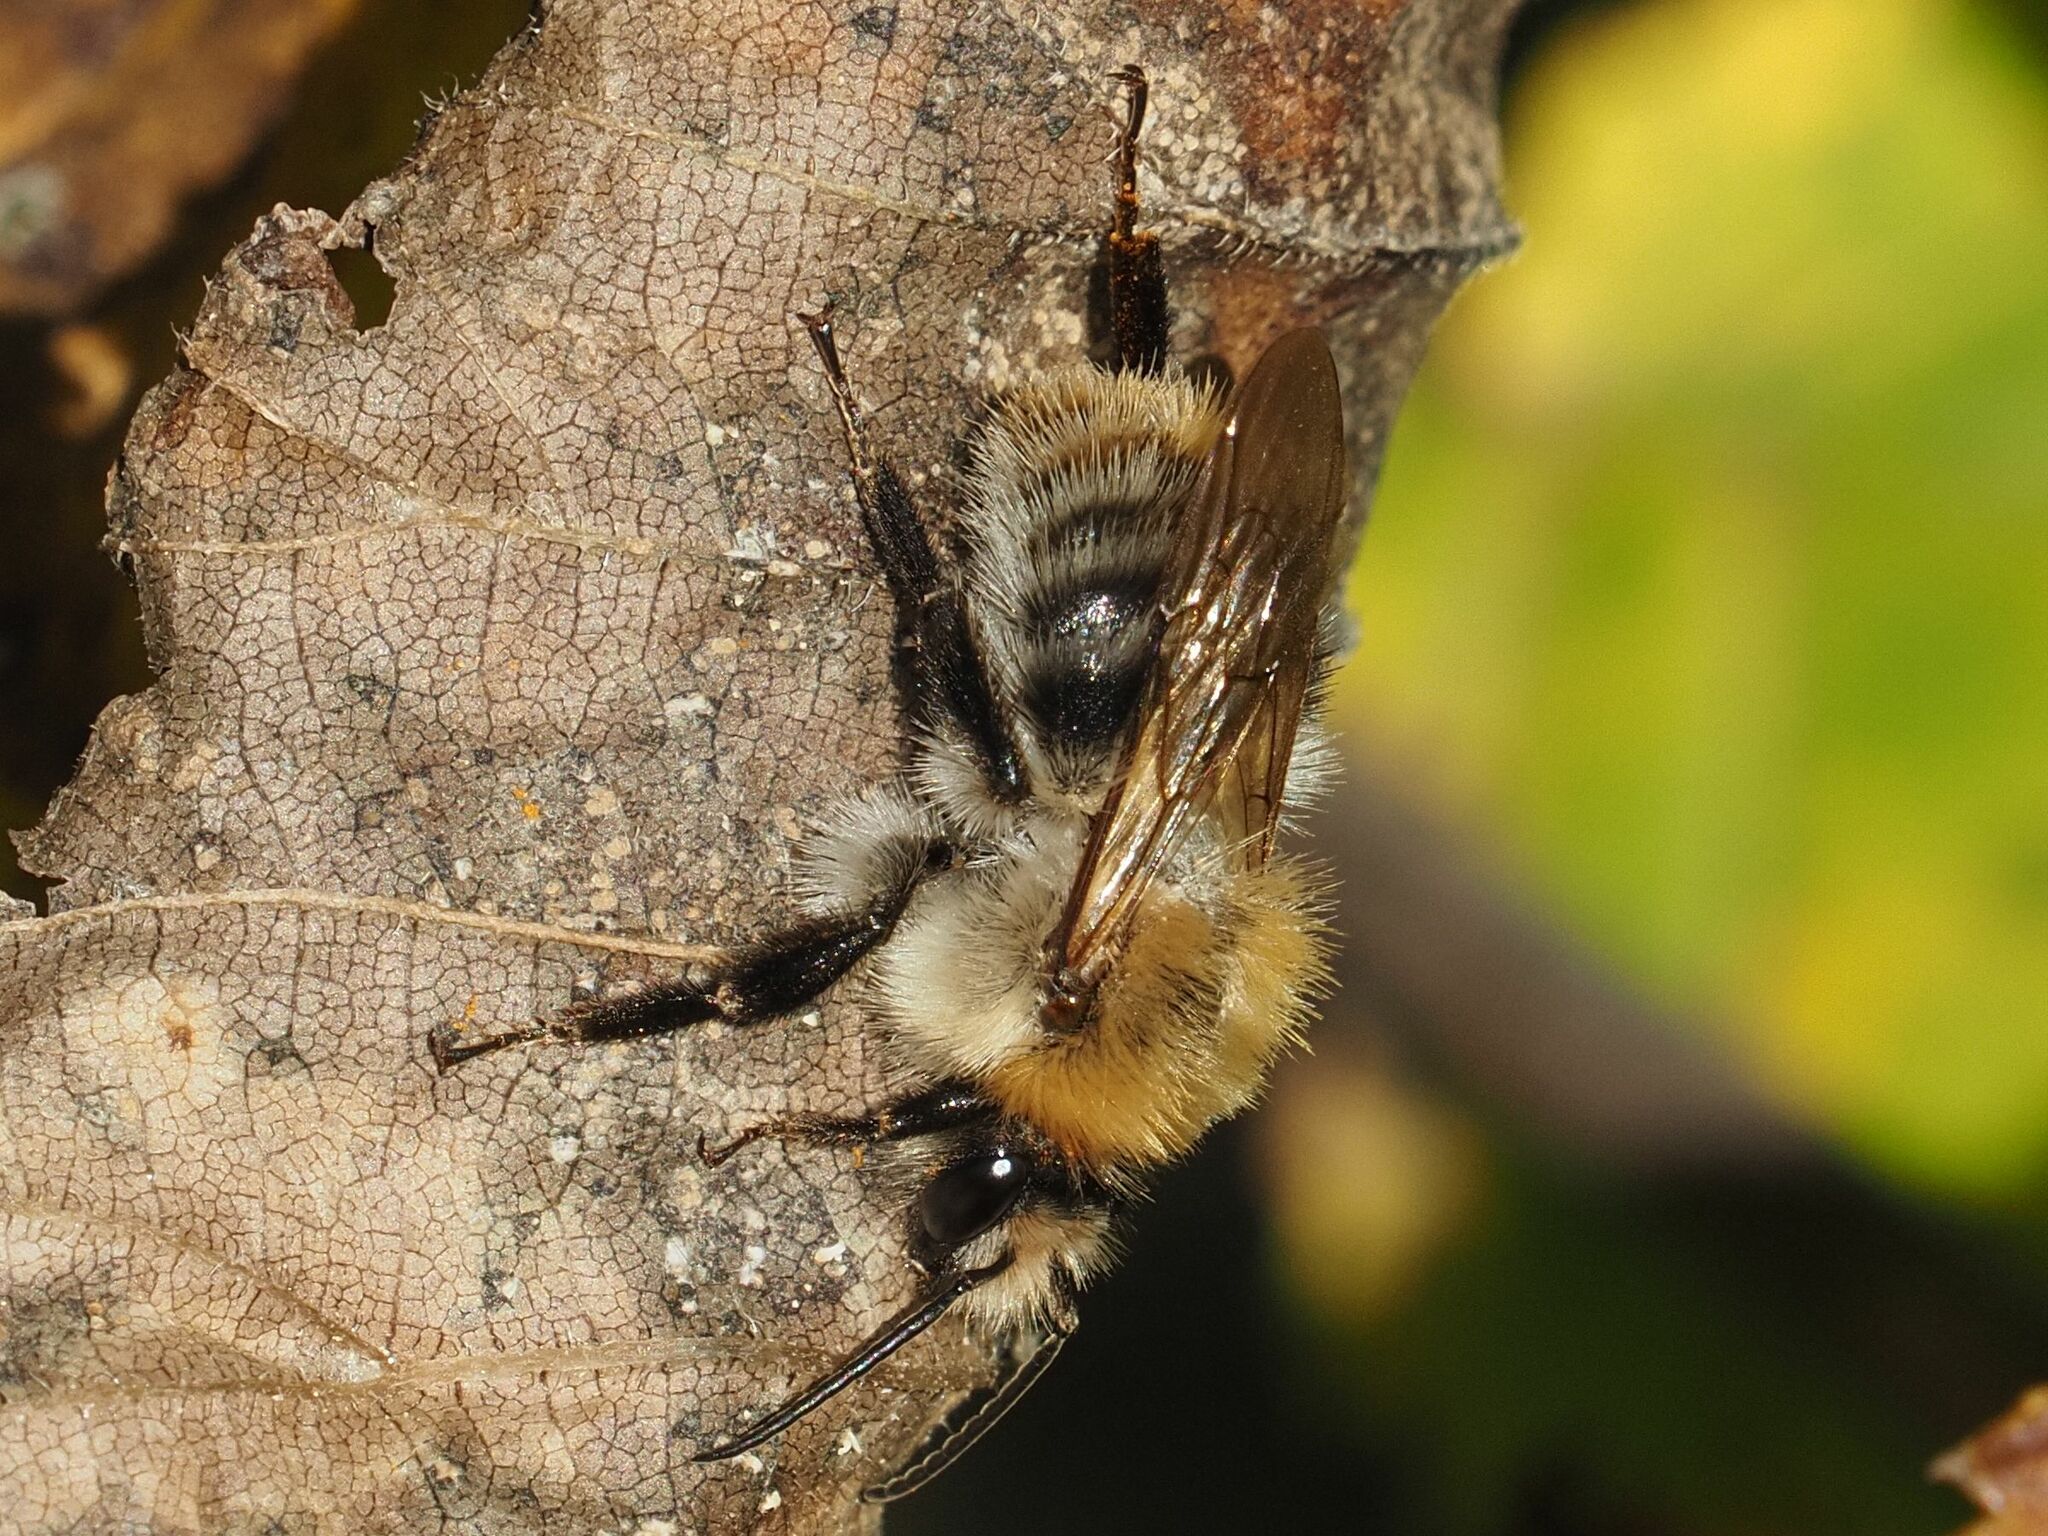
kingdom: Animalia
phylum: Arthropoda
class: Insecta
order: Hymenoptera
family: Apidae
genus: Bombus
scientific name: Bombus pascuorum
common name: Common carder bee
